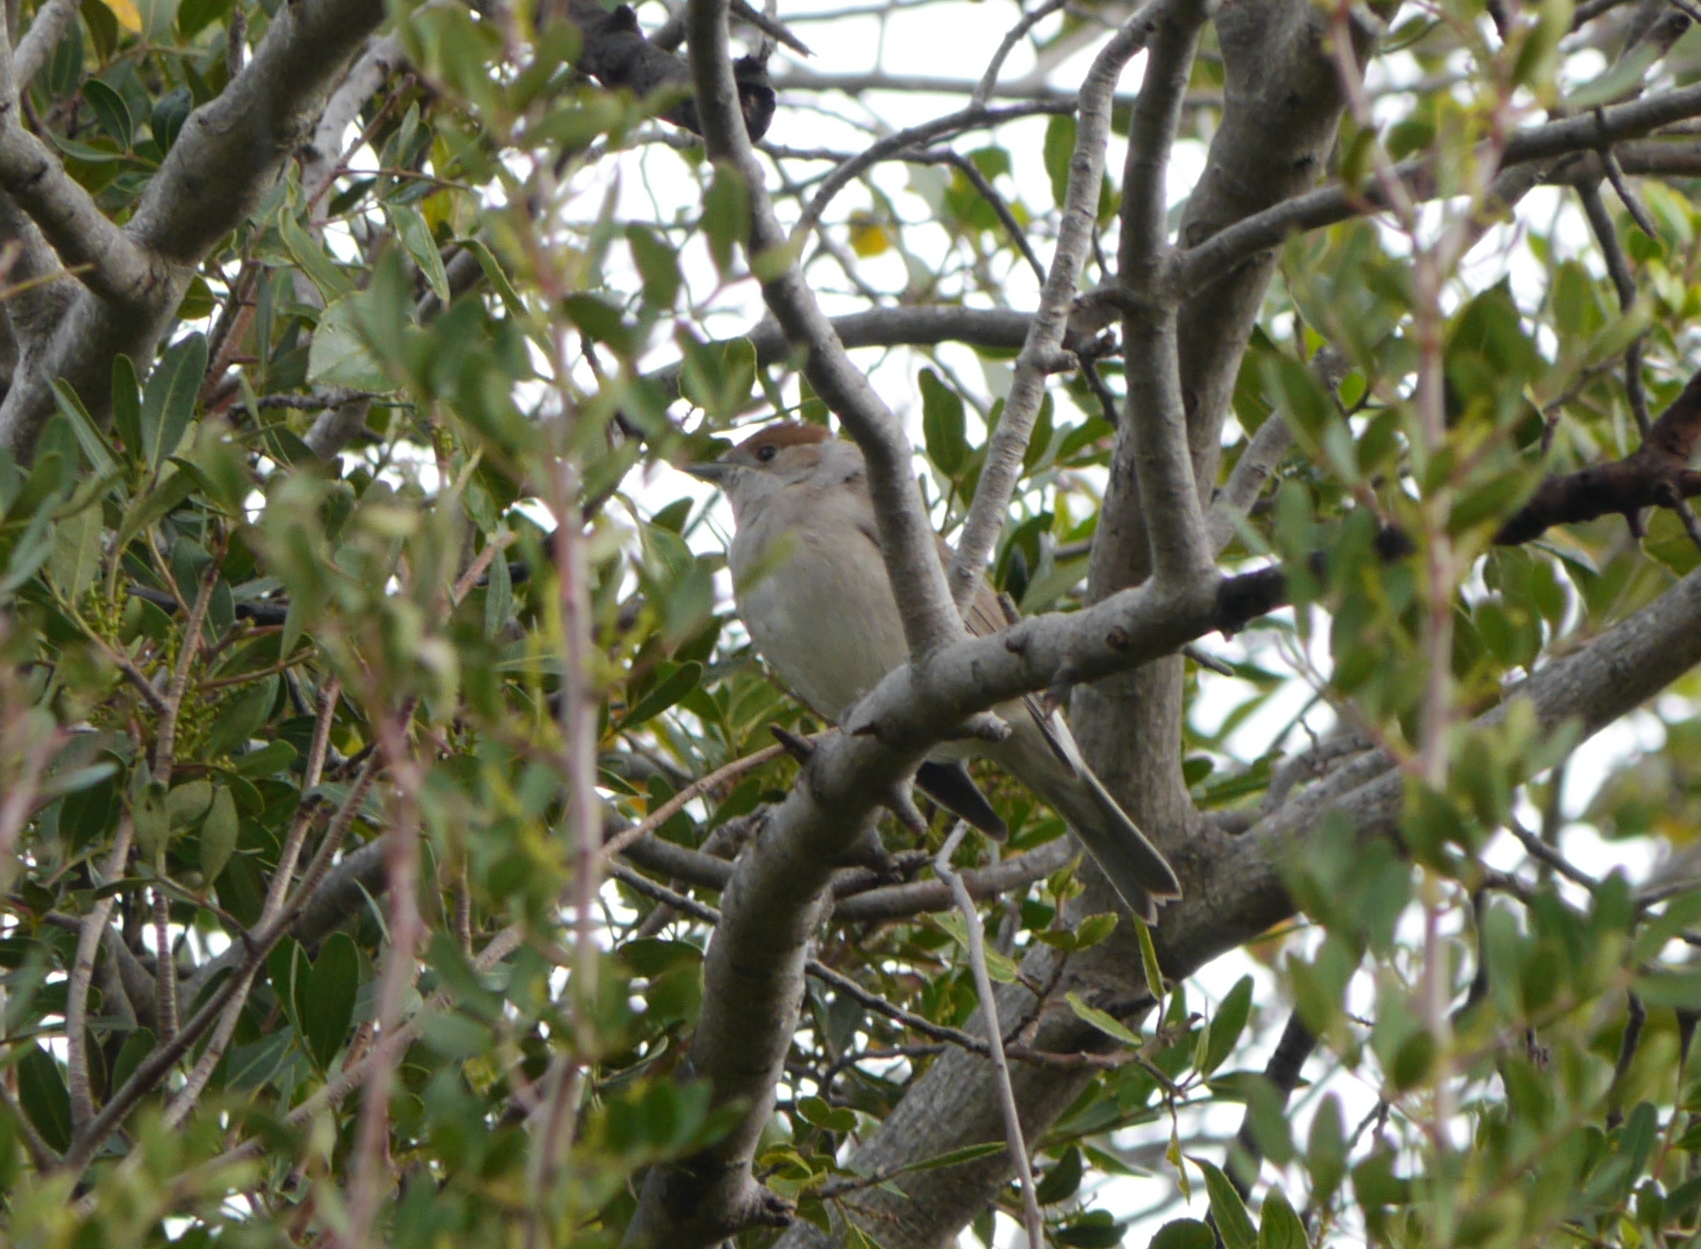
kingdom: Animalia
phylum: Chordata
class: Aves
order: Passeriformes
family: Sylviidae
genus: Sylvia
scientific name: Sylvia atricapilla
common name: Eurasian blackcap
